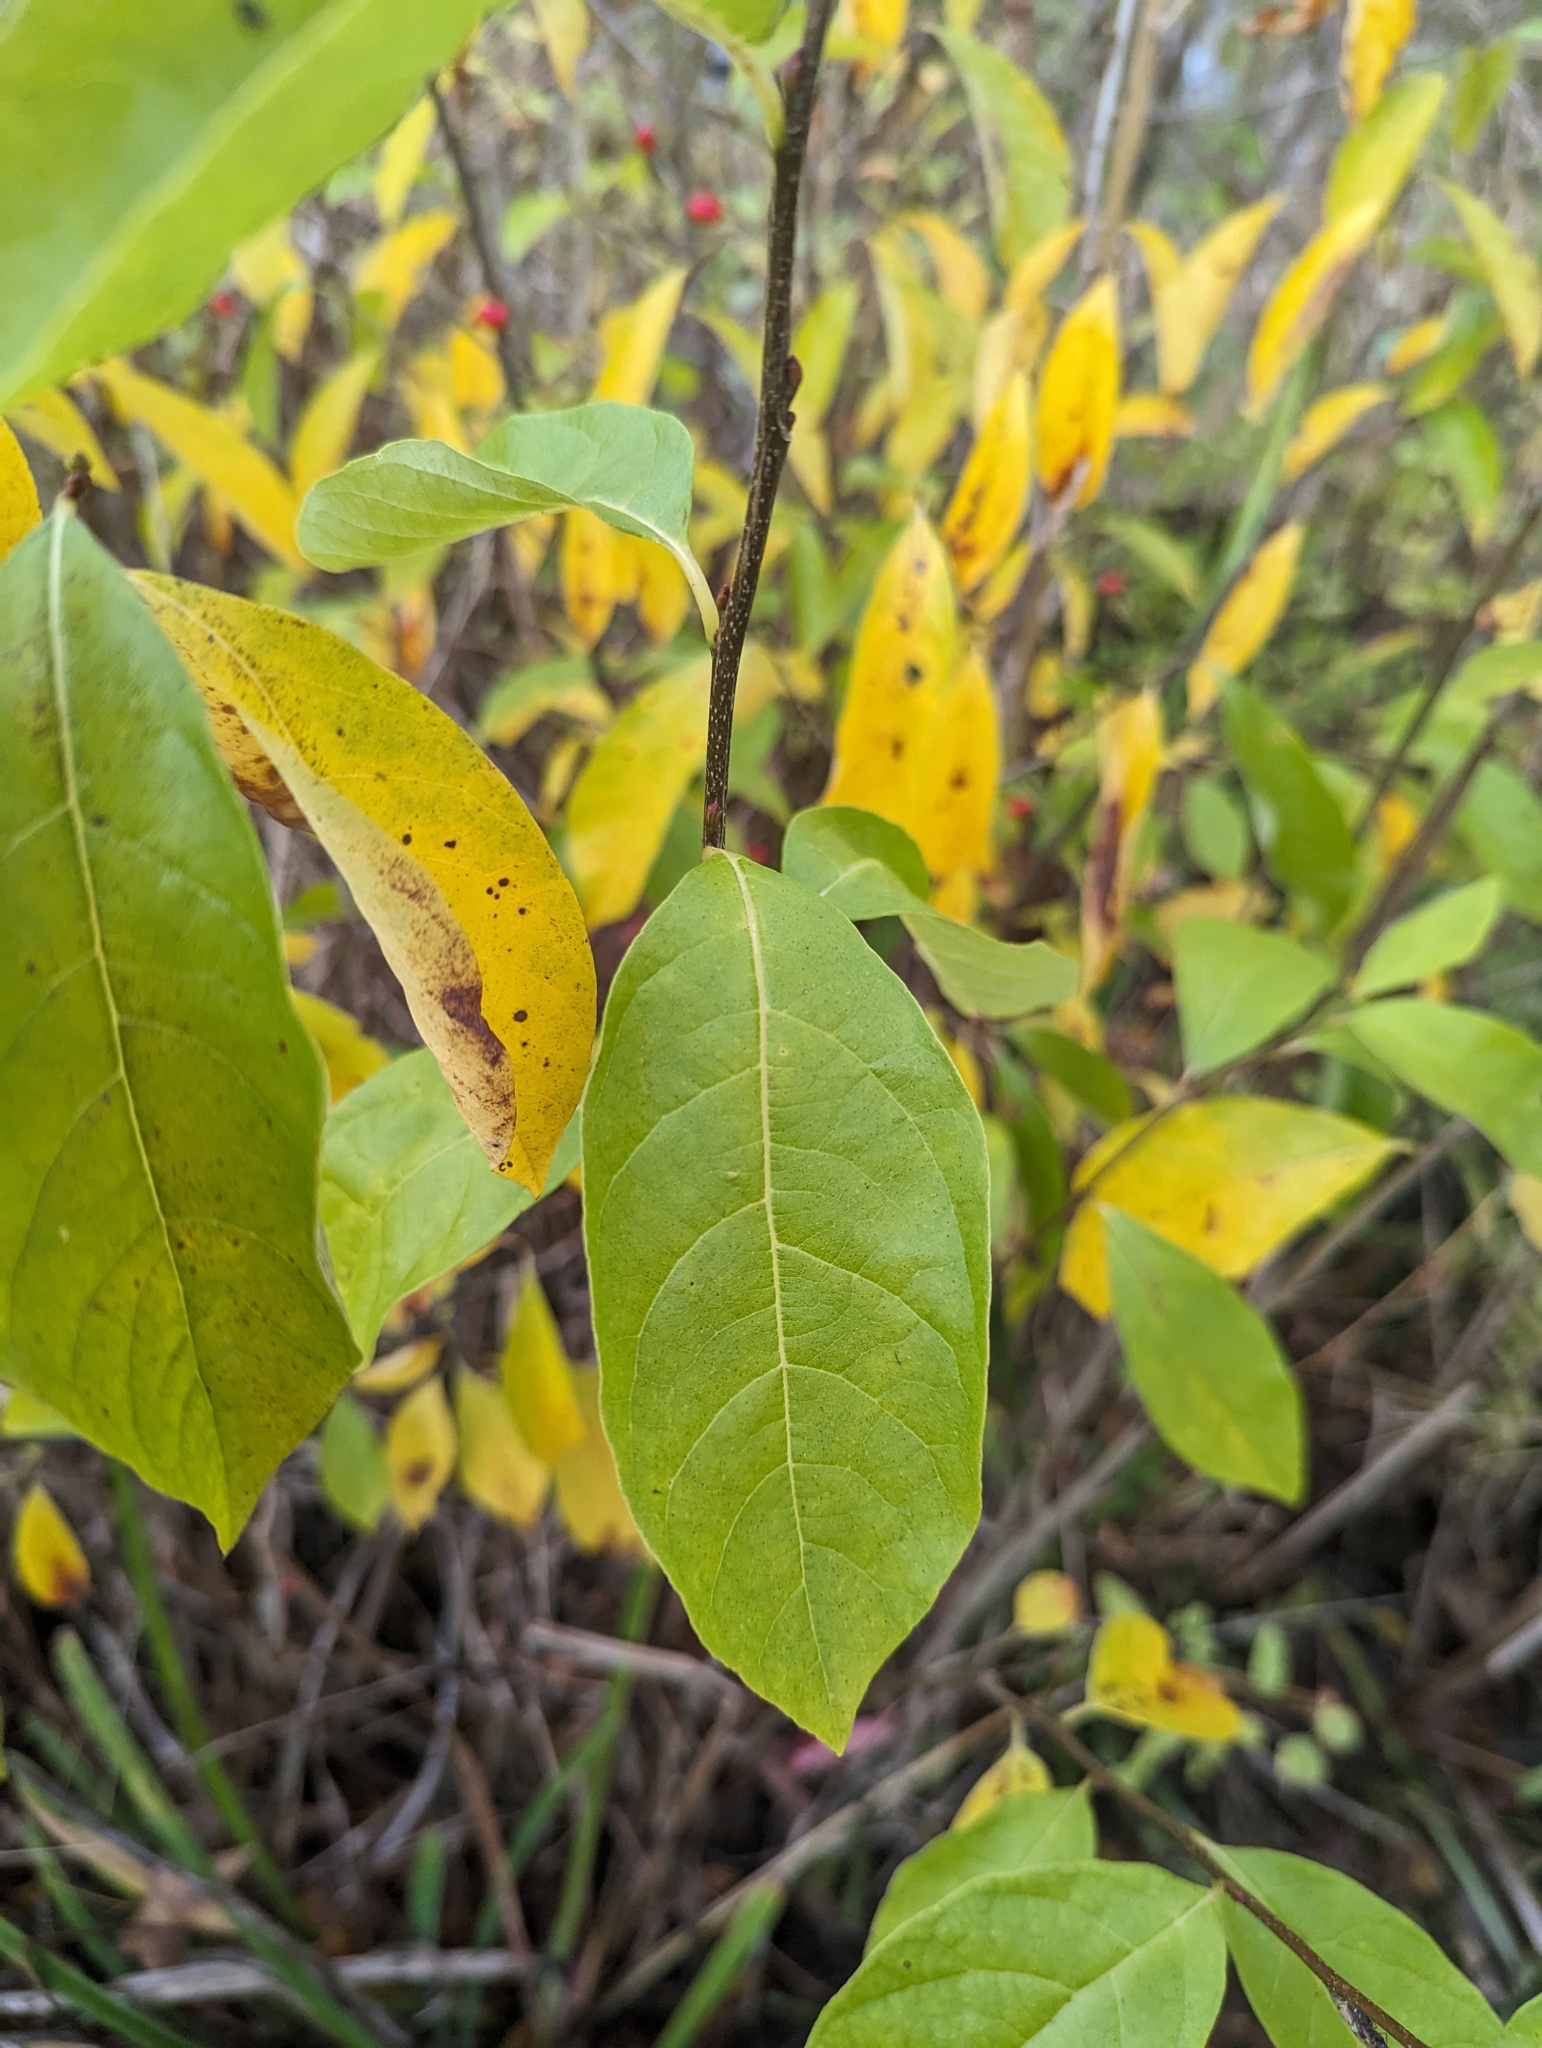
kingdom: Plantae
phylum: Tracheophyta
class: Magnoliopsida
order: Laurales
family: Lauraceae
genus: Lindera
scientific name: Lindera benzoin
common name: Spicebush
